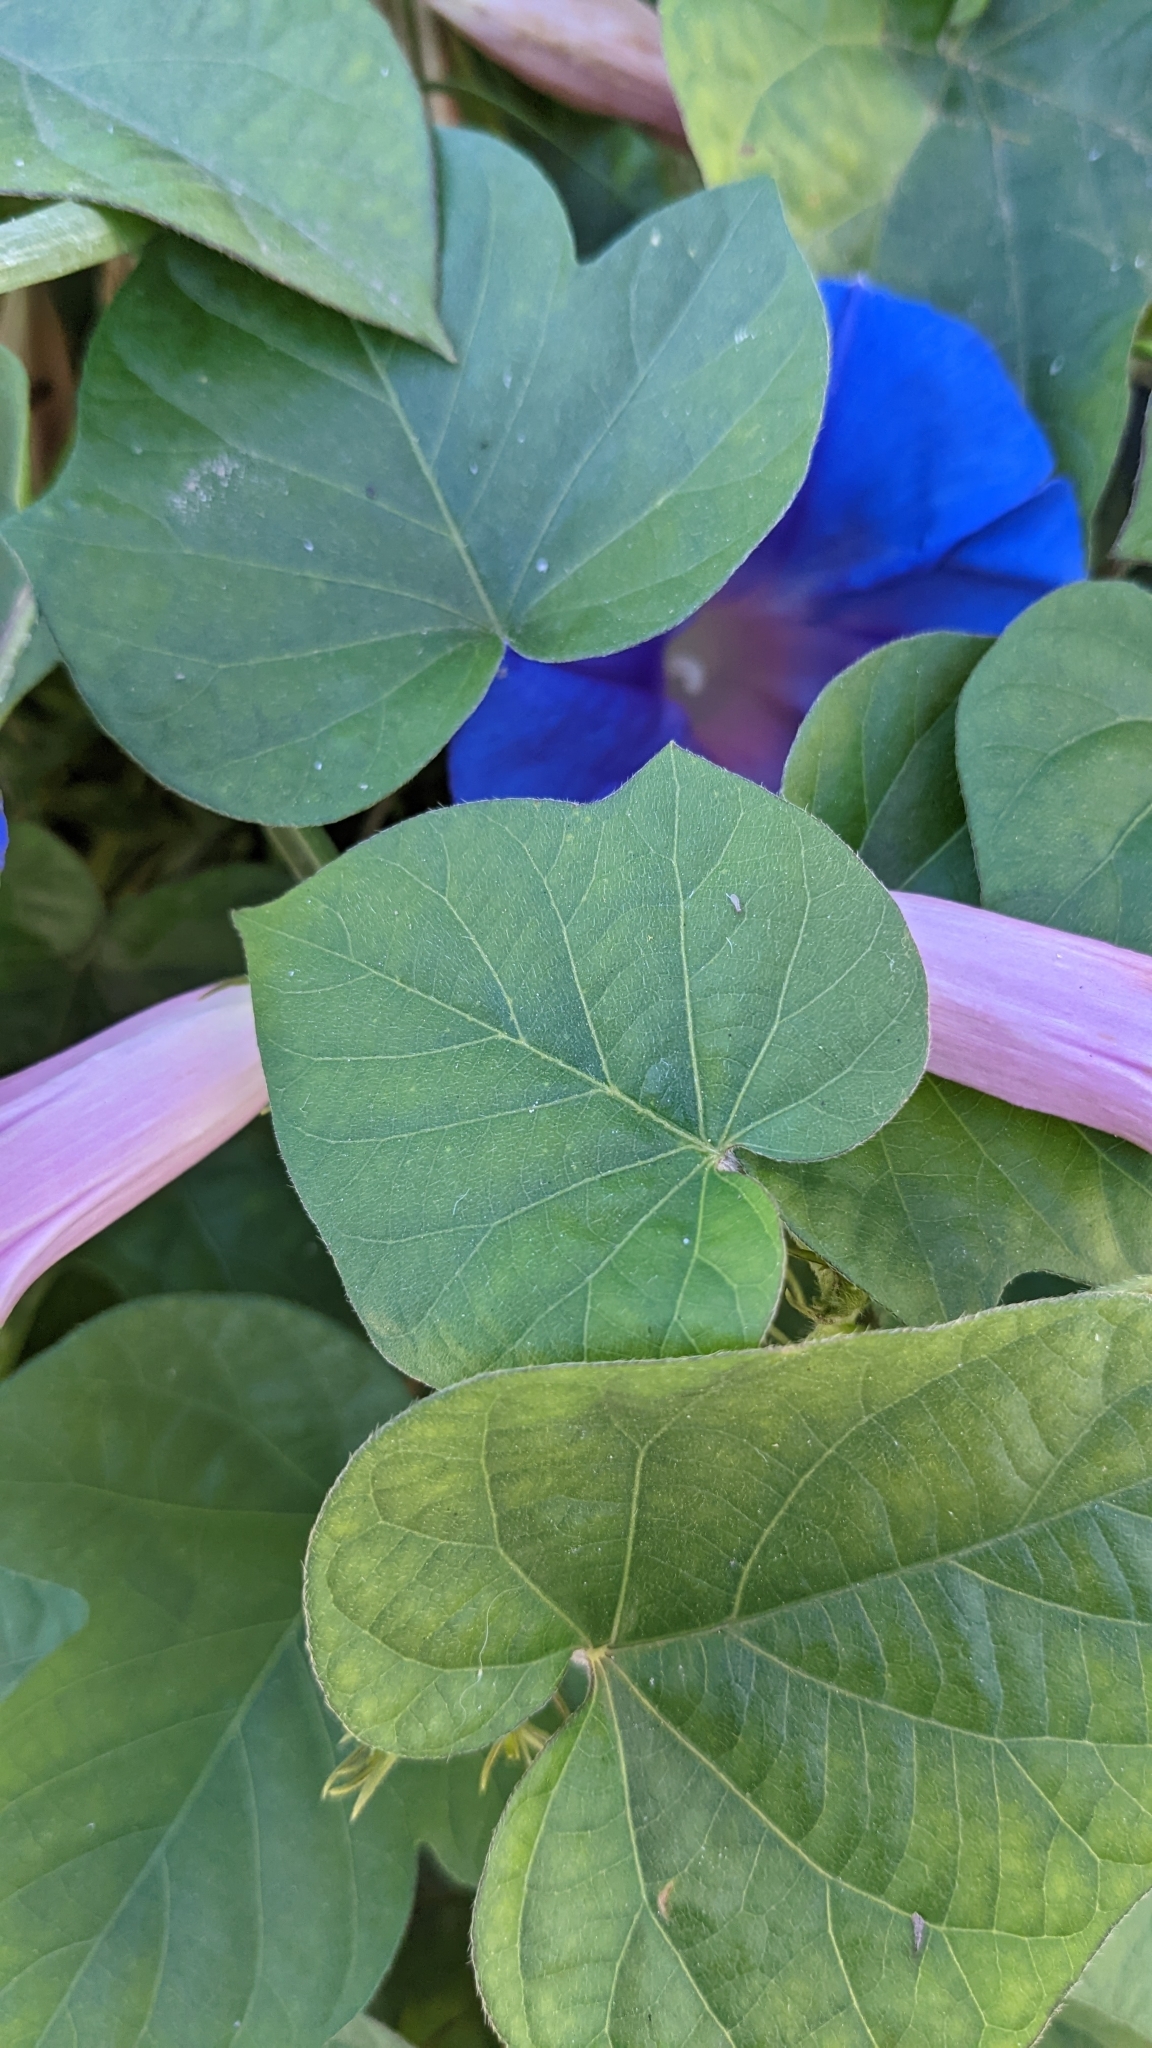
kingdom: Plantae
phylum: Tracheophyta
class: Magnoliopsida
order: Solanales
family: Convolvulaceae
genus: Ipomoea
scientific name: Ipomoea indica
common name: Blue dawnflower
